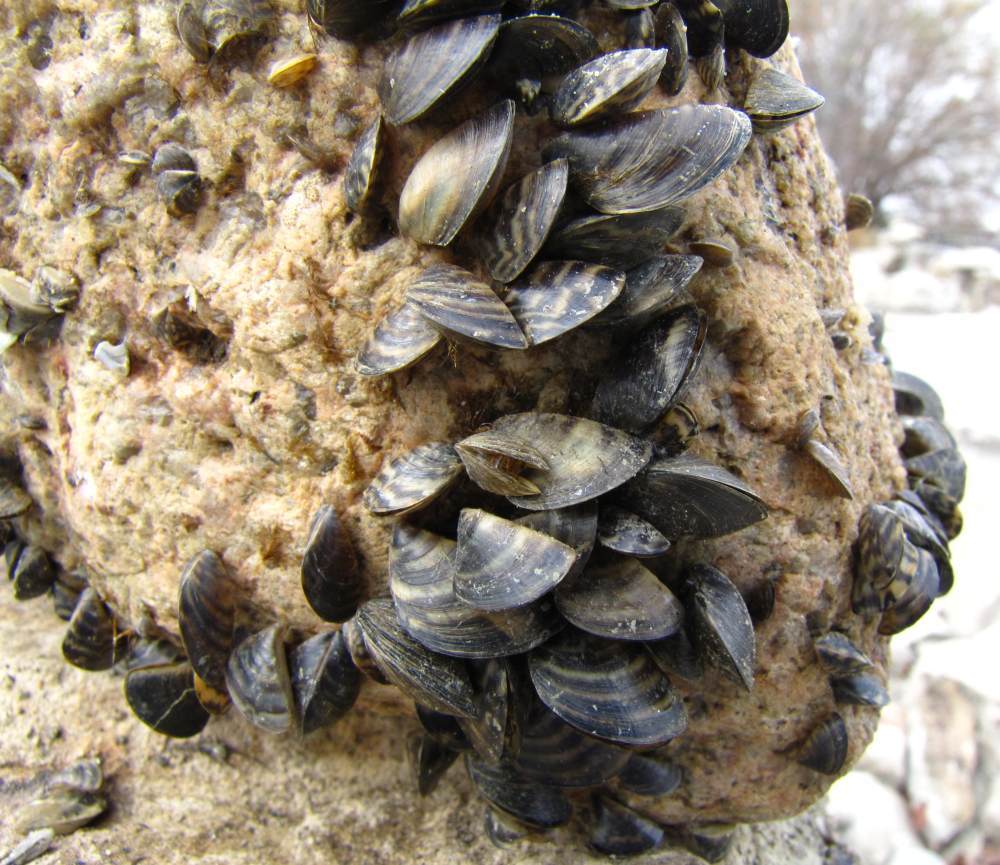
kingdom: Animalia
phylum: Mollusca
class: Bivalvia
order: Myida
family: Dreissenidae
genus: Dreissena
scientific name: Dreissena polymorpha
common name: Zebra mussel
